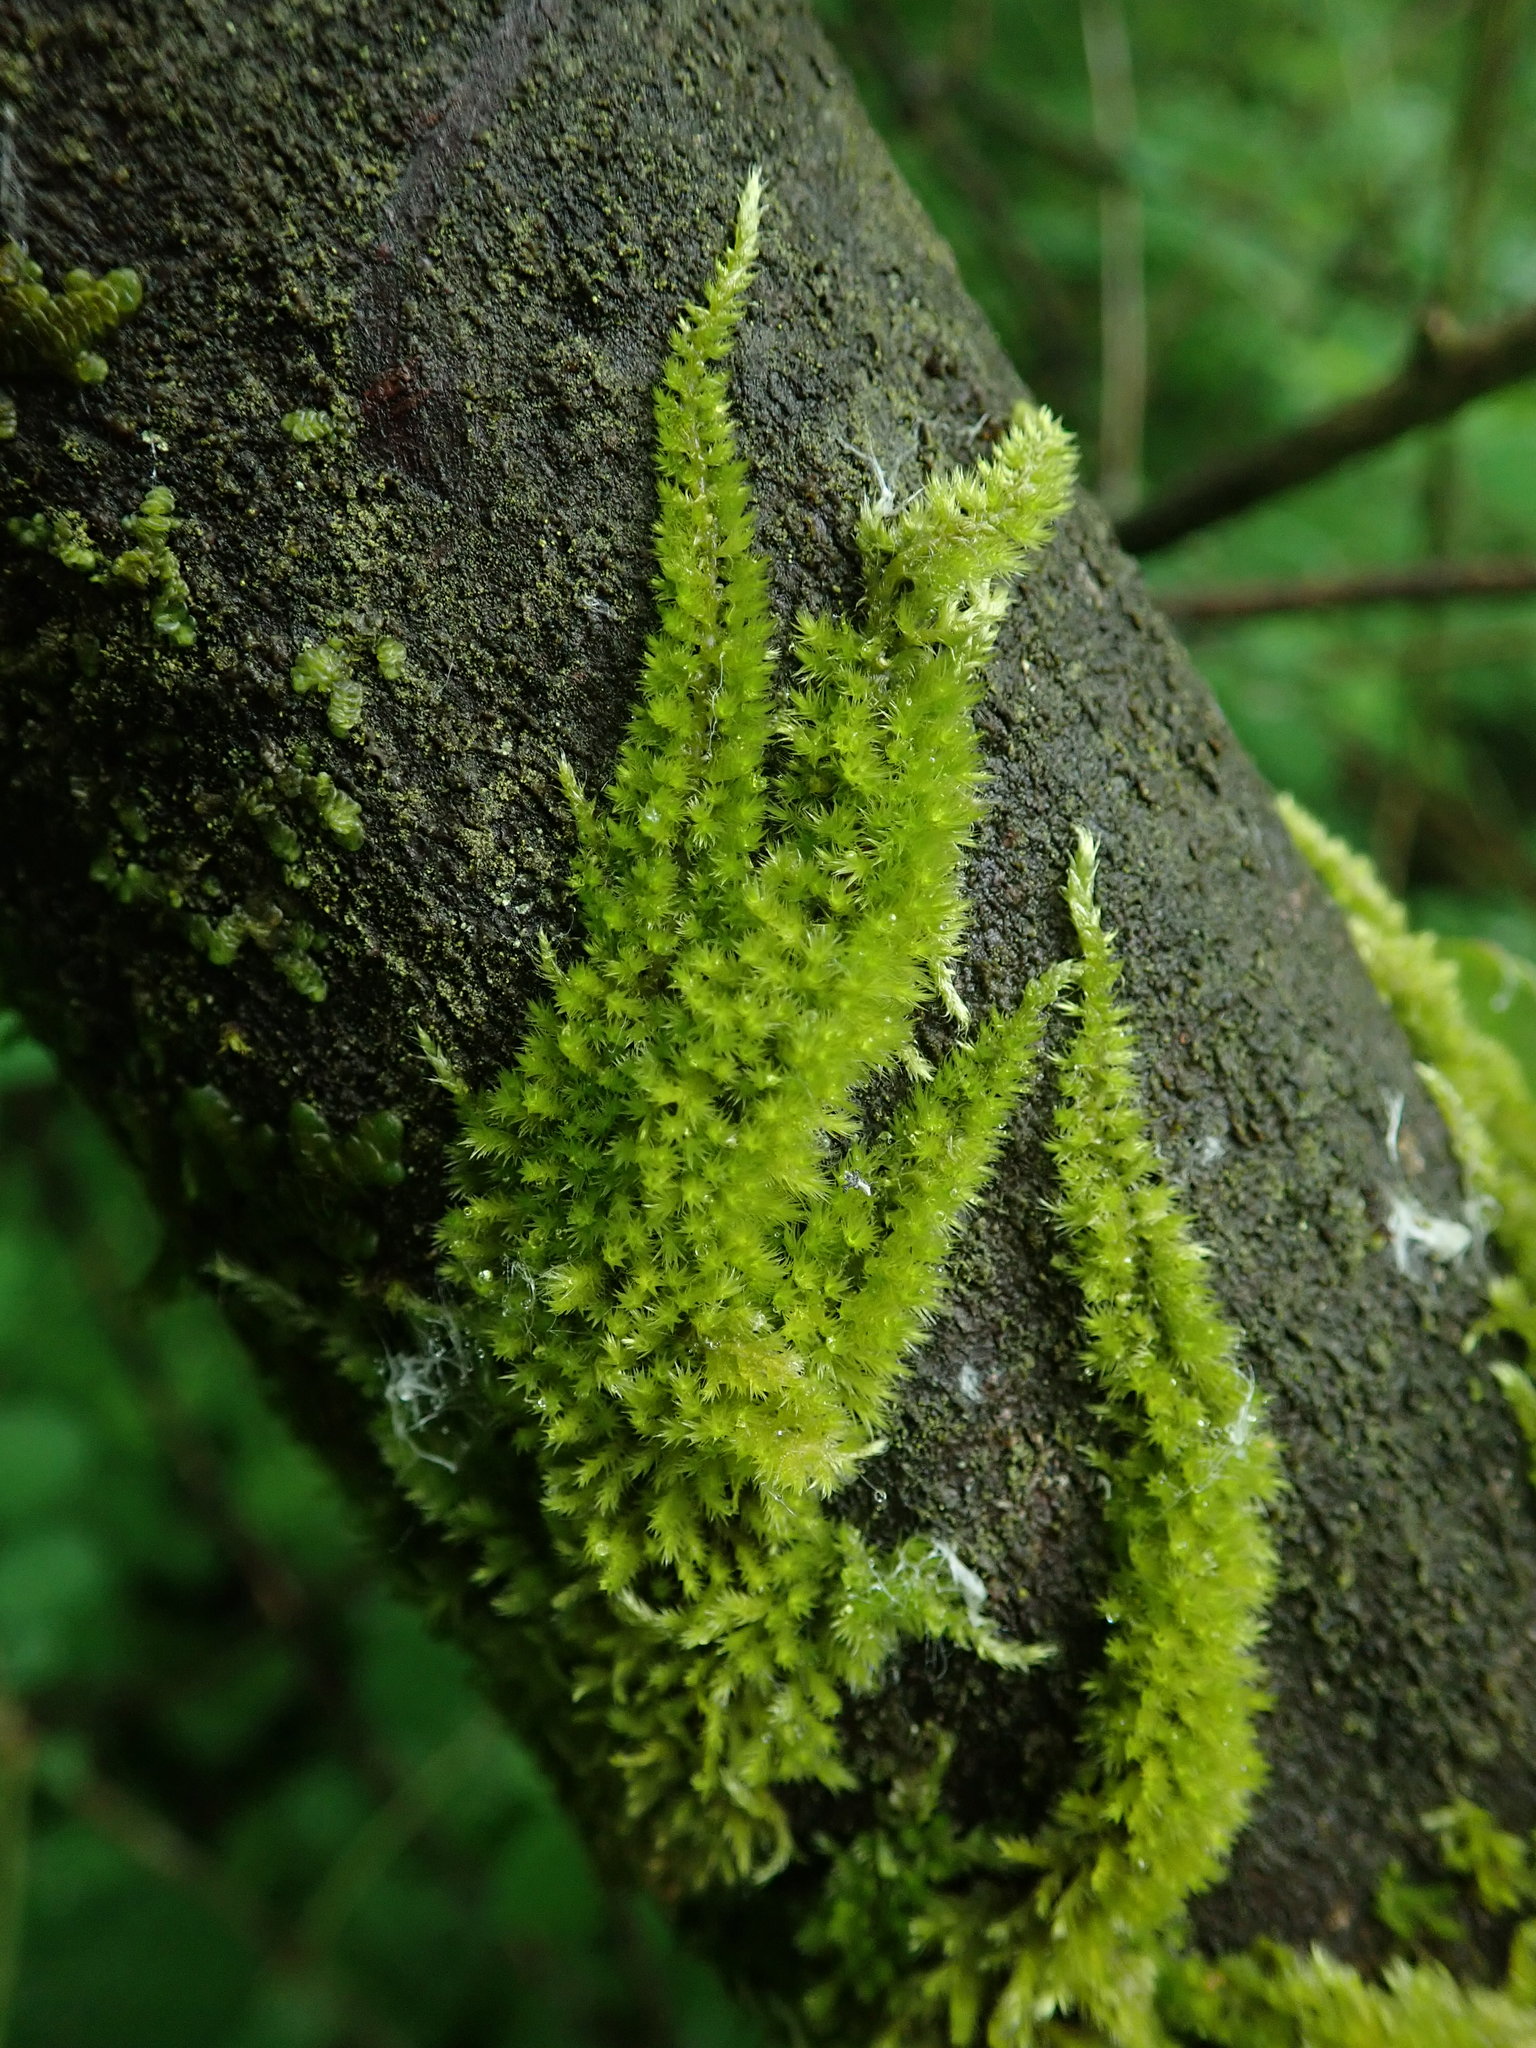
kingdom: Plantae
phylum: Bryophyta
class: Bryopsida
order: Hypnales
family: Brachytheciaceae
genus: Homalothecium
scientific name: Homalothecium nuttallii
